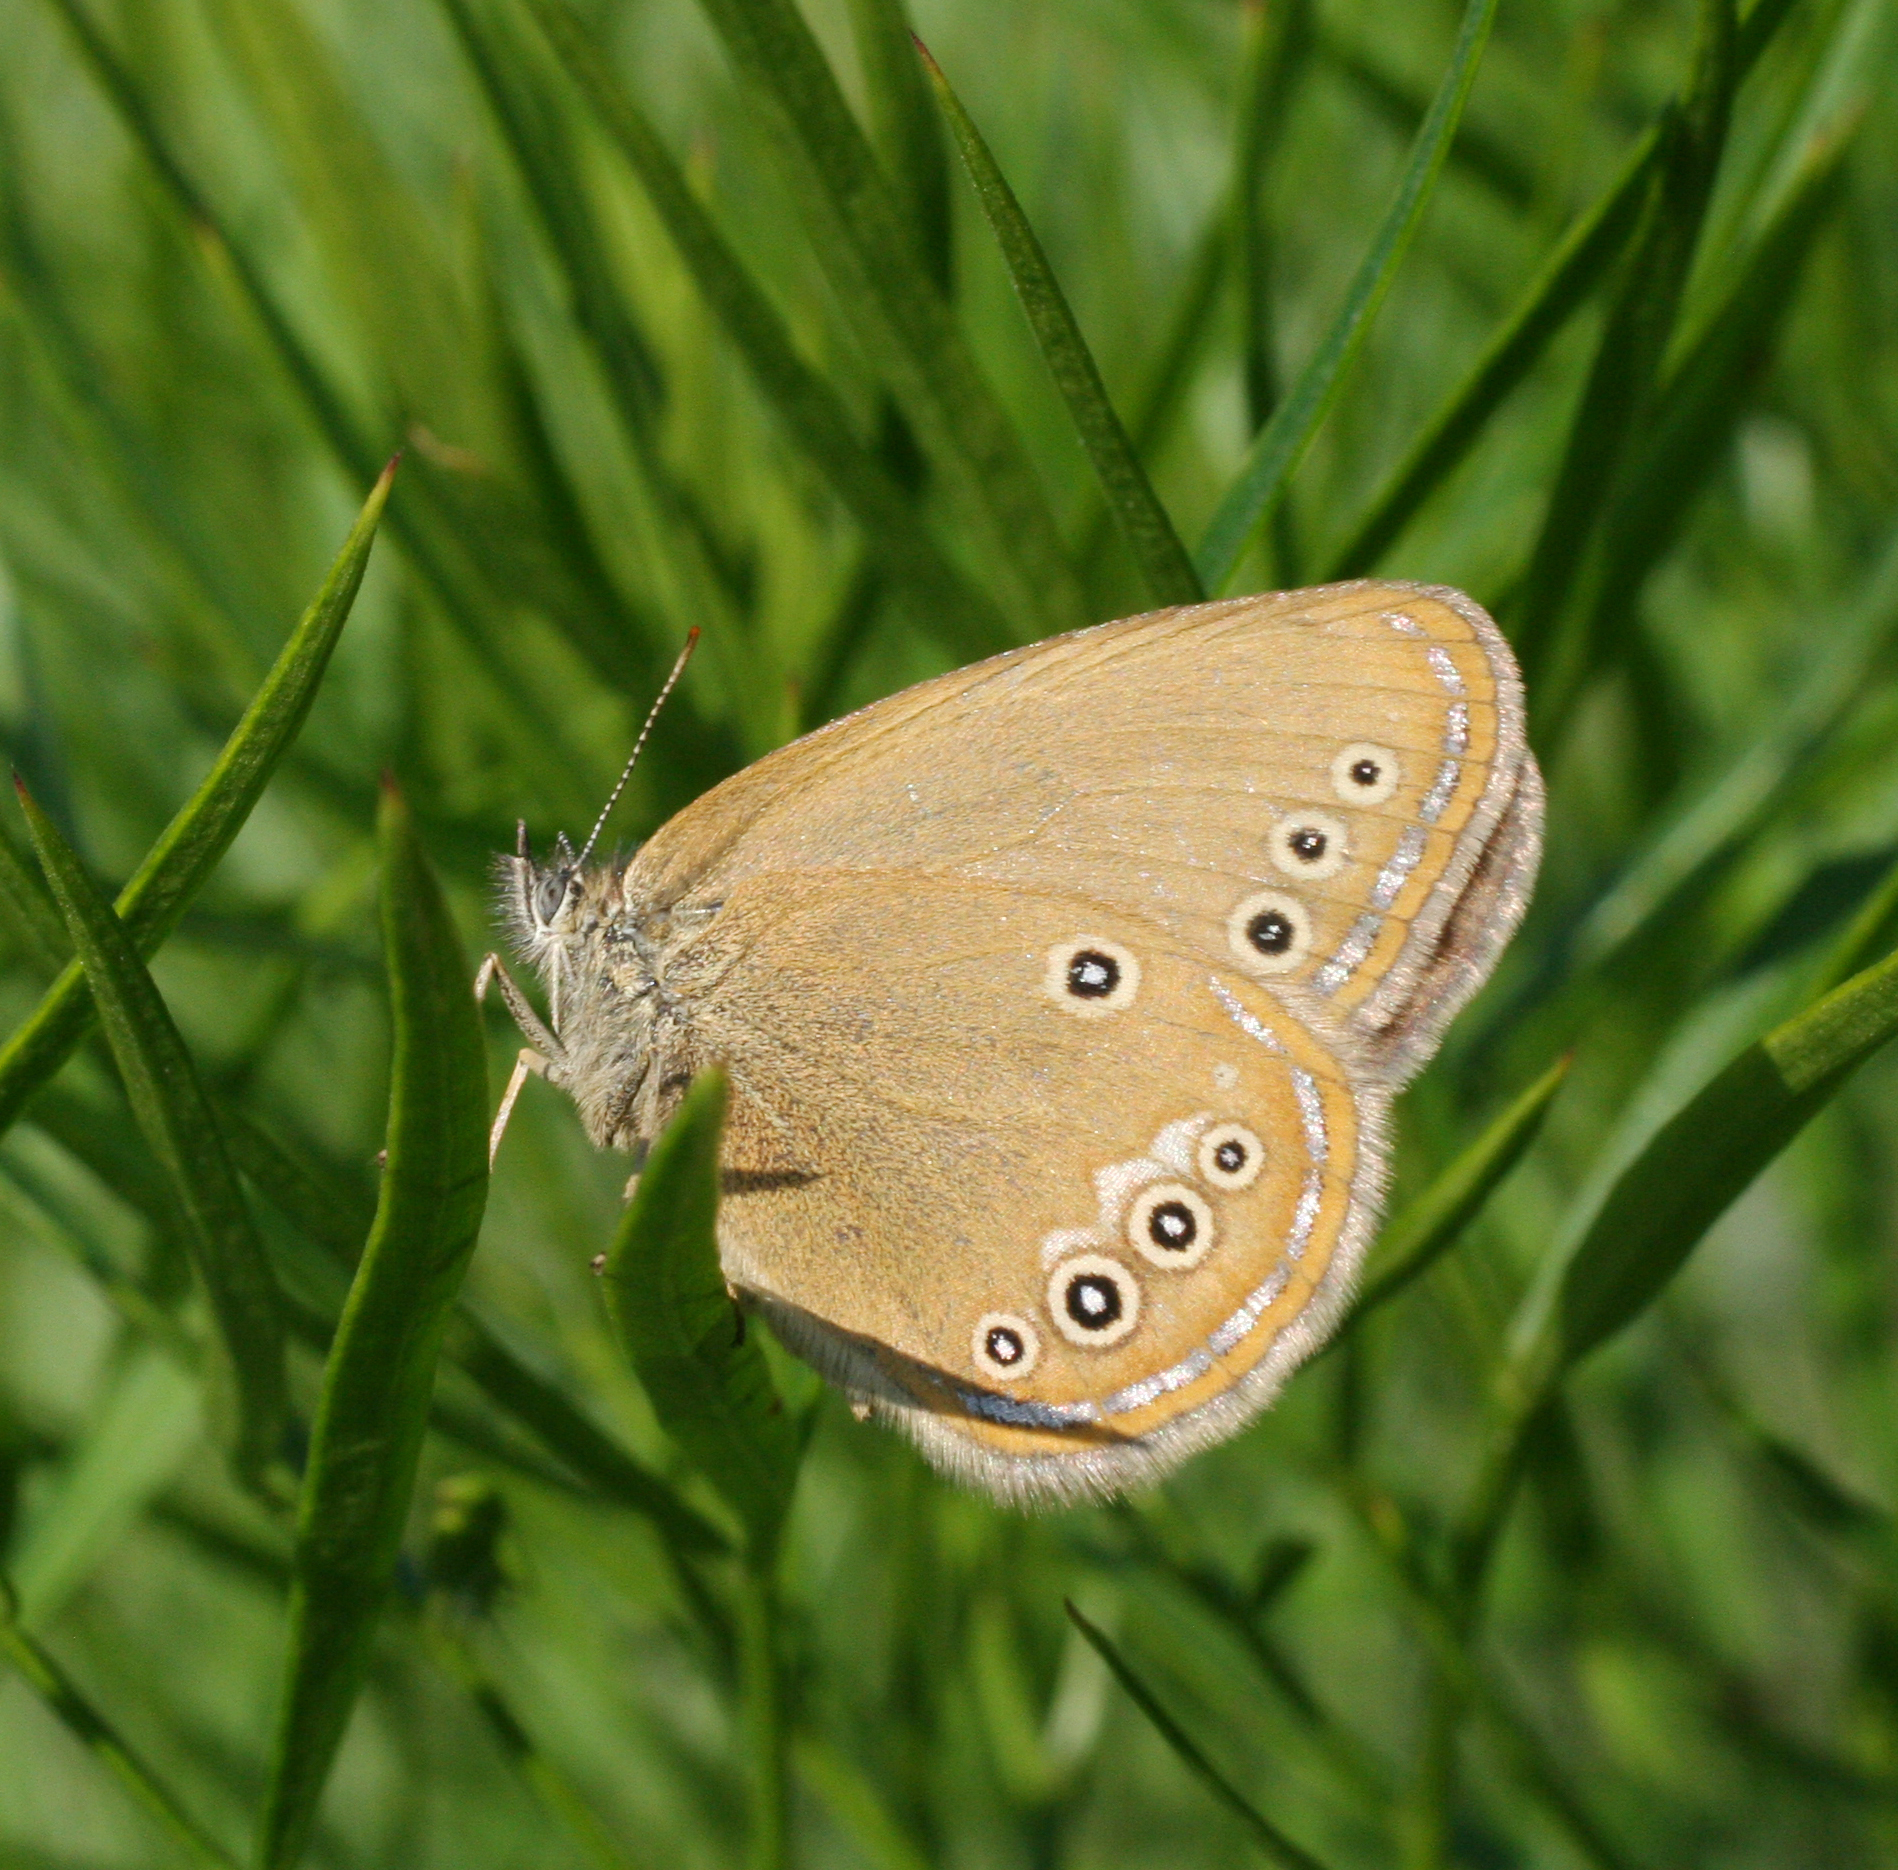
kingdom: Animalia
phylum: Arthropoda
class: Insecta
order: Lepidoptera
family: Nymphalidae
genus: Coenonympha
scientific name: Coenonympha oedippus
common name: False ringlet
